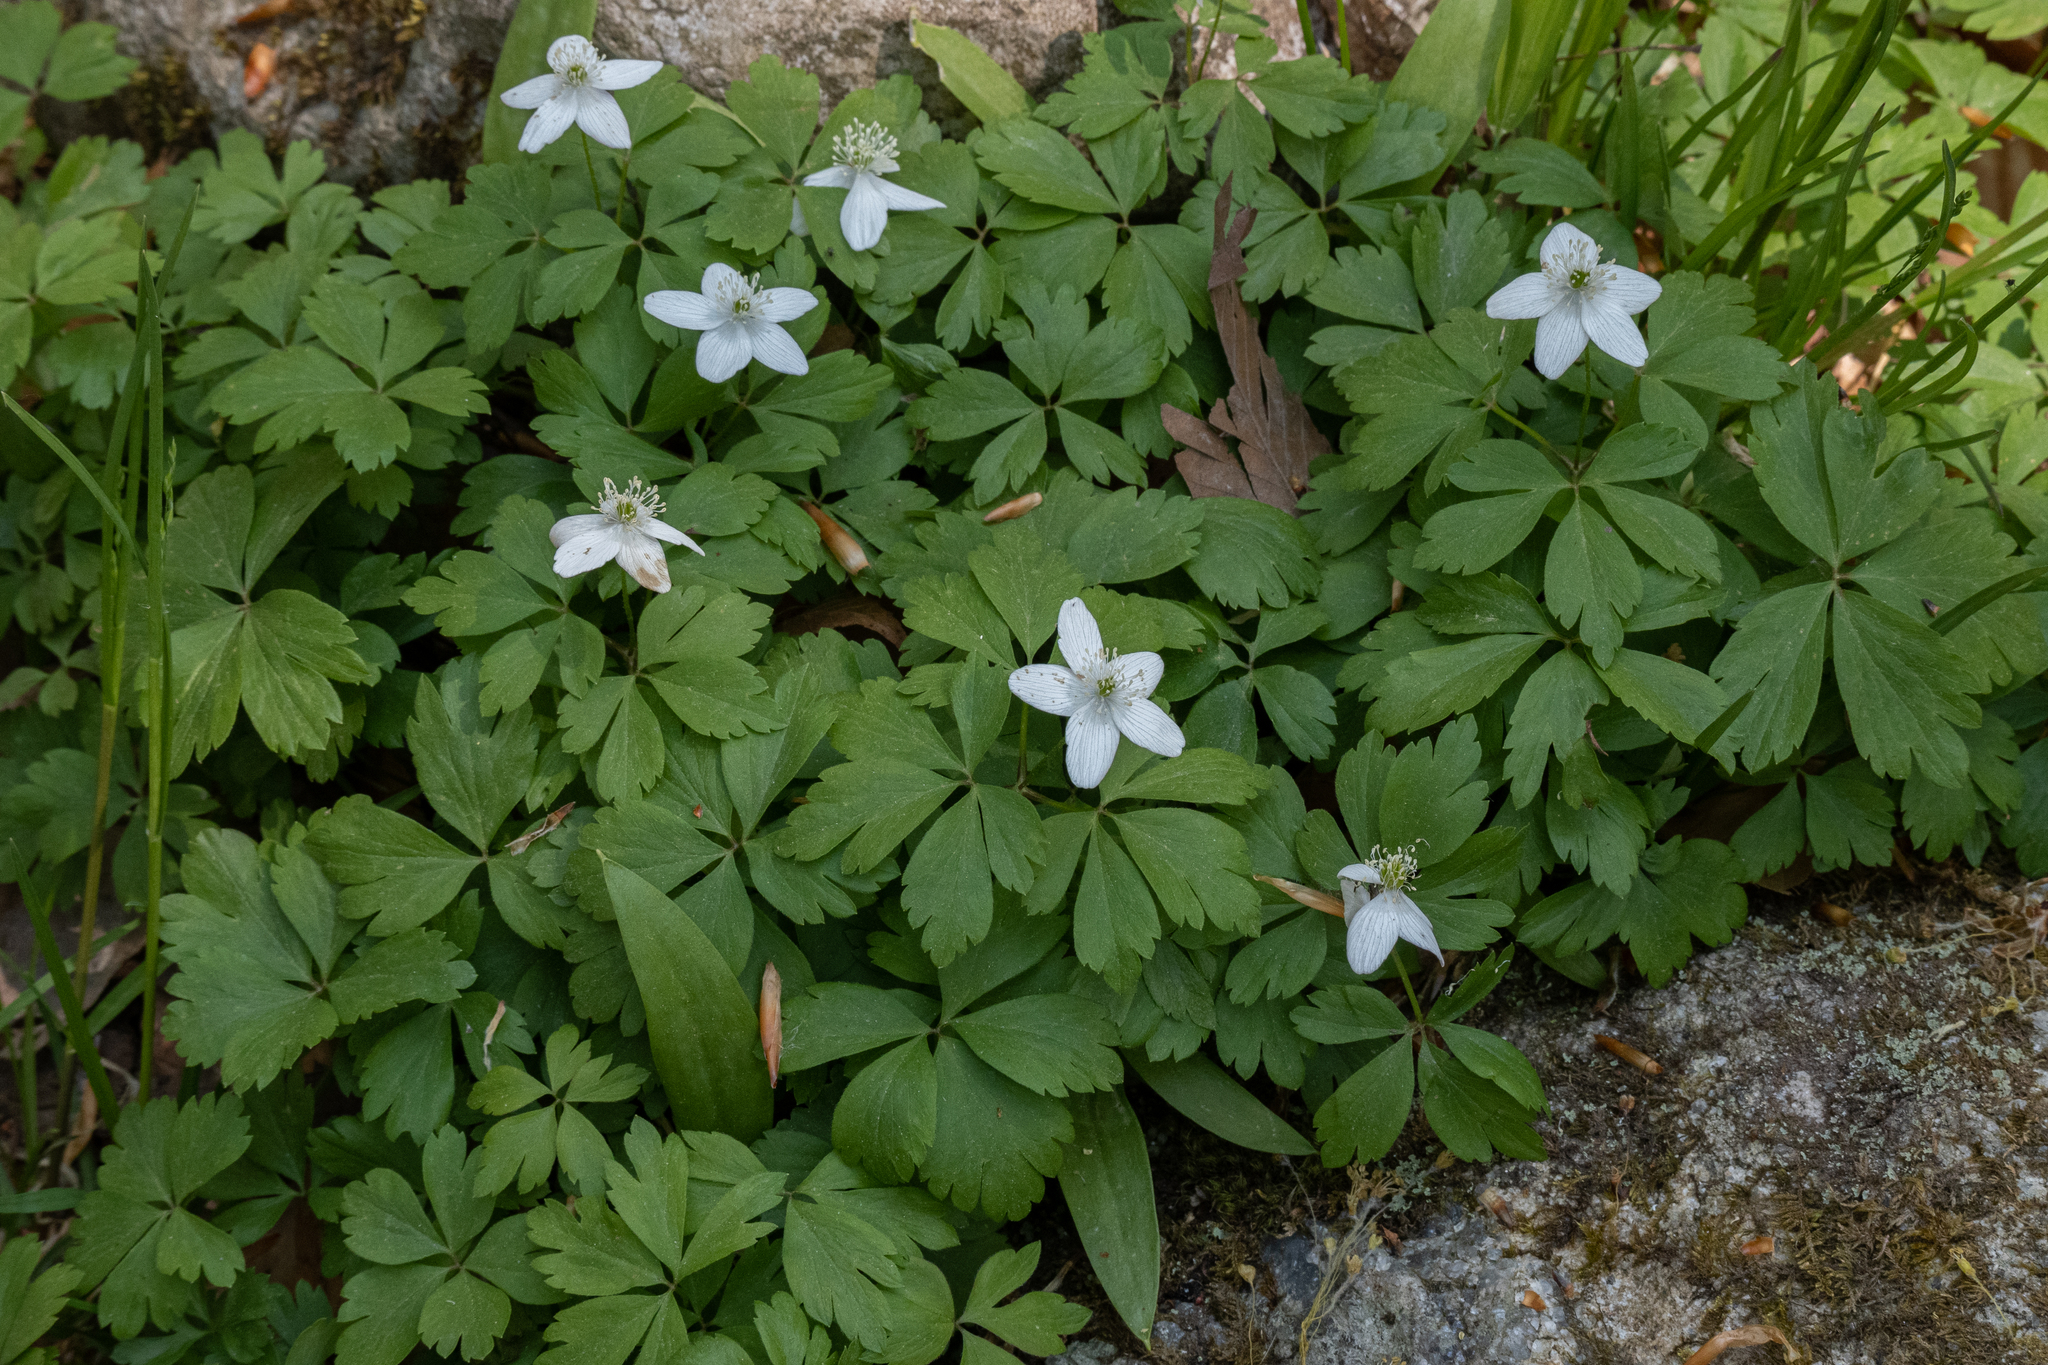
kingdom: Plantae
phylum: Tracheophyta
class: Magnoliopsida
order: Ranunculales
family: Ranunculaceae
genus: Anemone
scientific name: Anemone quinquefolia
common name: Wood anemone
